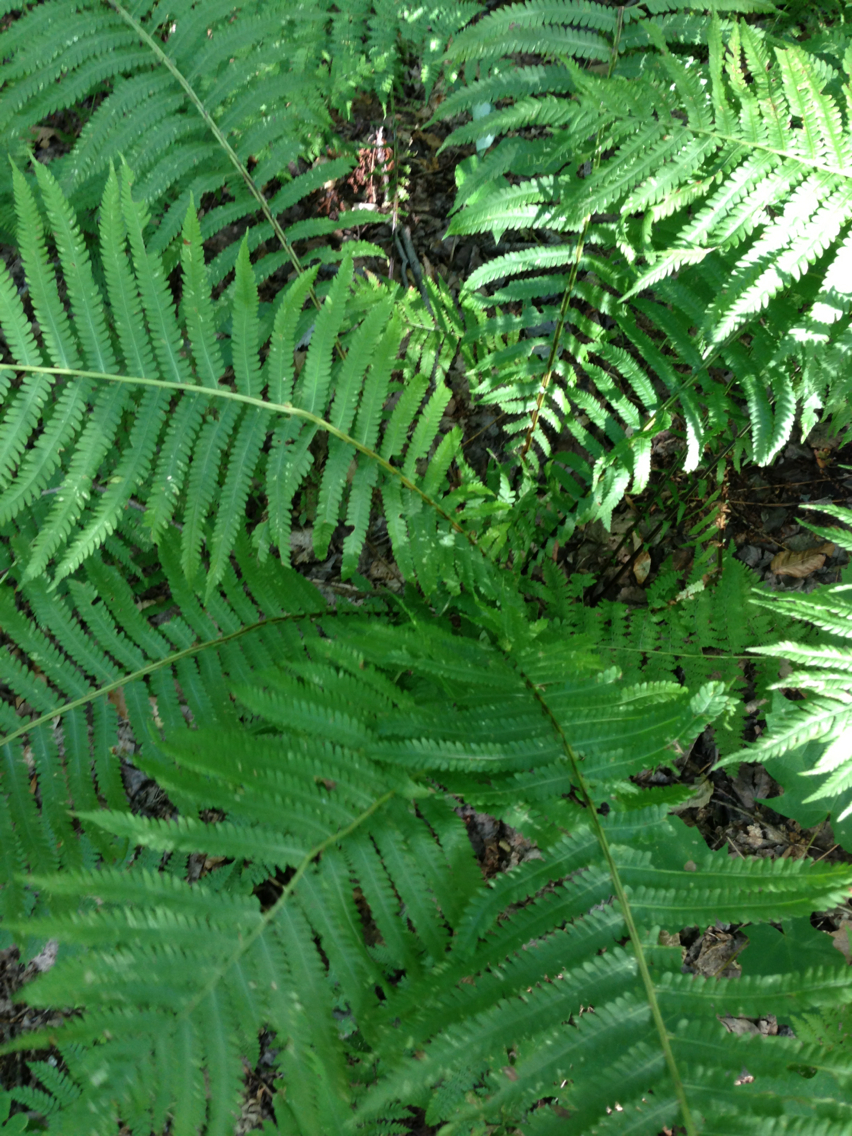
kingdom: Plantae
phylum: Tracheophyta
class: Polypodiopsida
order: Polypodiales
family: Onocleaceae
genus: Matteuccia
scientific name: Matteuccia struthiopteris
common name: Ostrich fern
